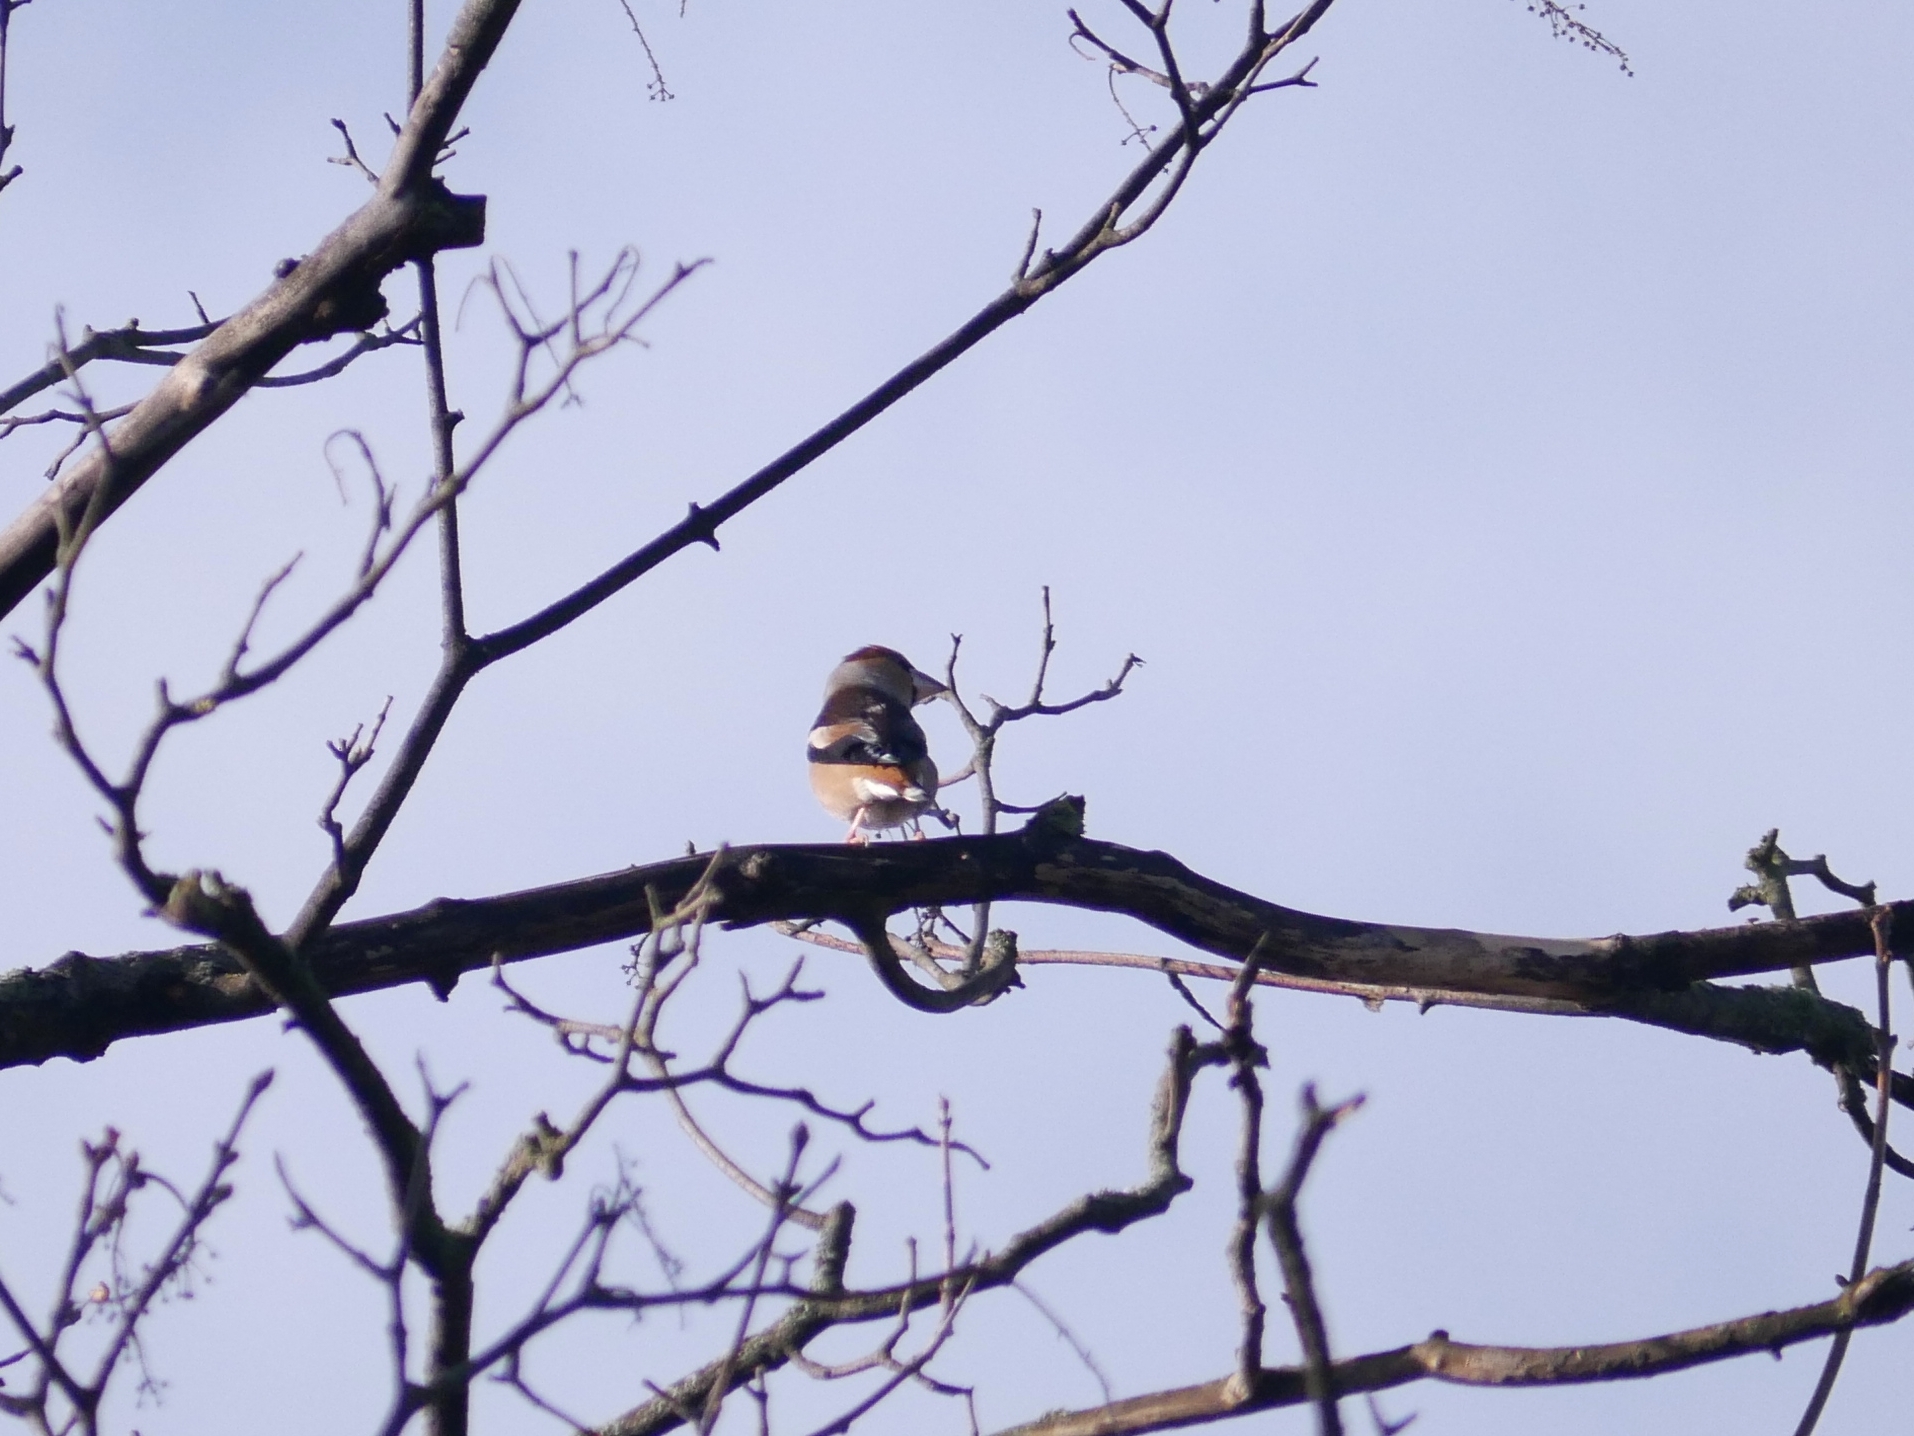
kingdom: Animalia
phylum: Chordata
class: Aves
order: Passeriformes
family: Fringillidae
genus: Coccothraustes
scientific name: Coccothraustes coccothraustes
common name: Hawfinch
